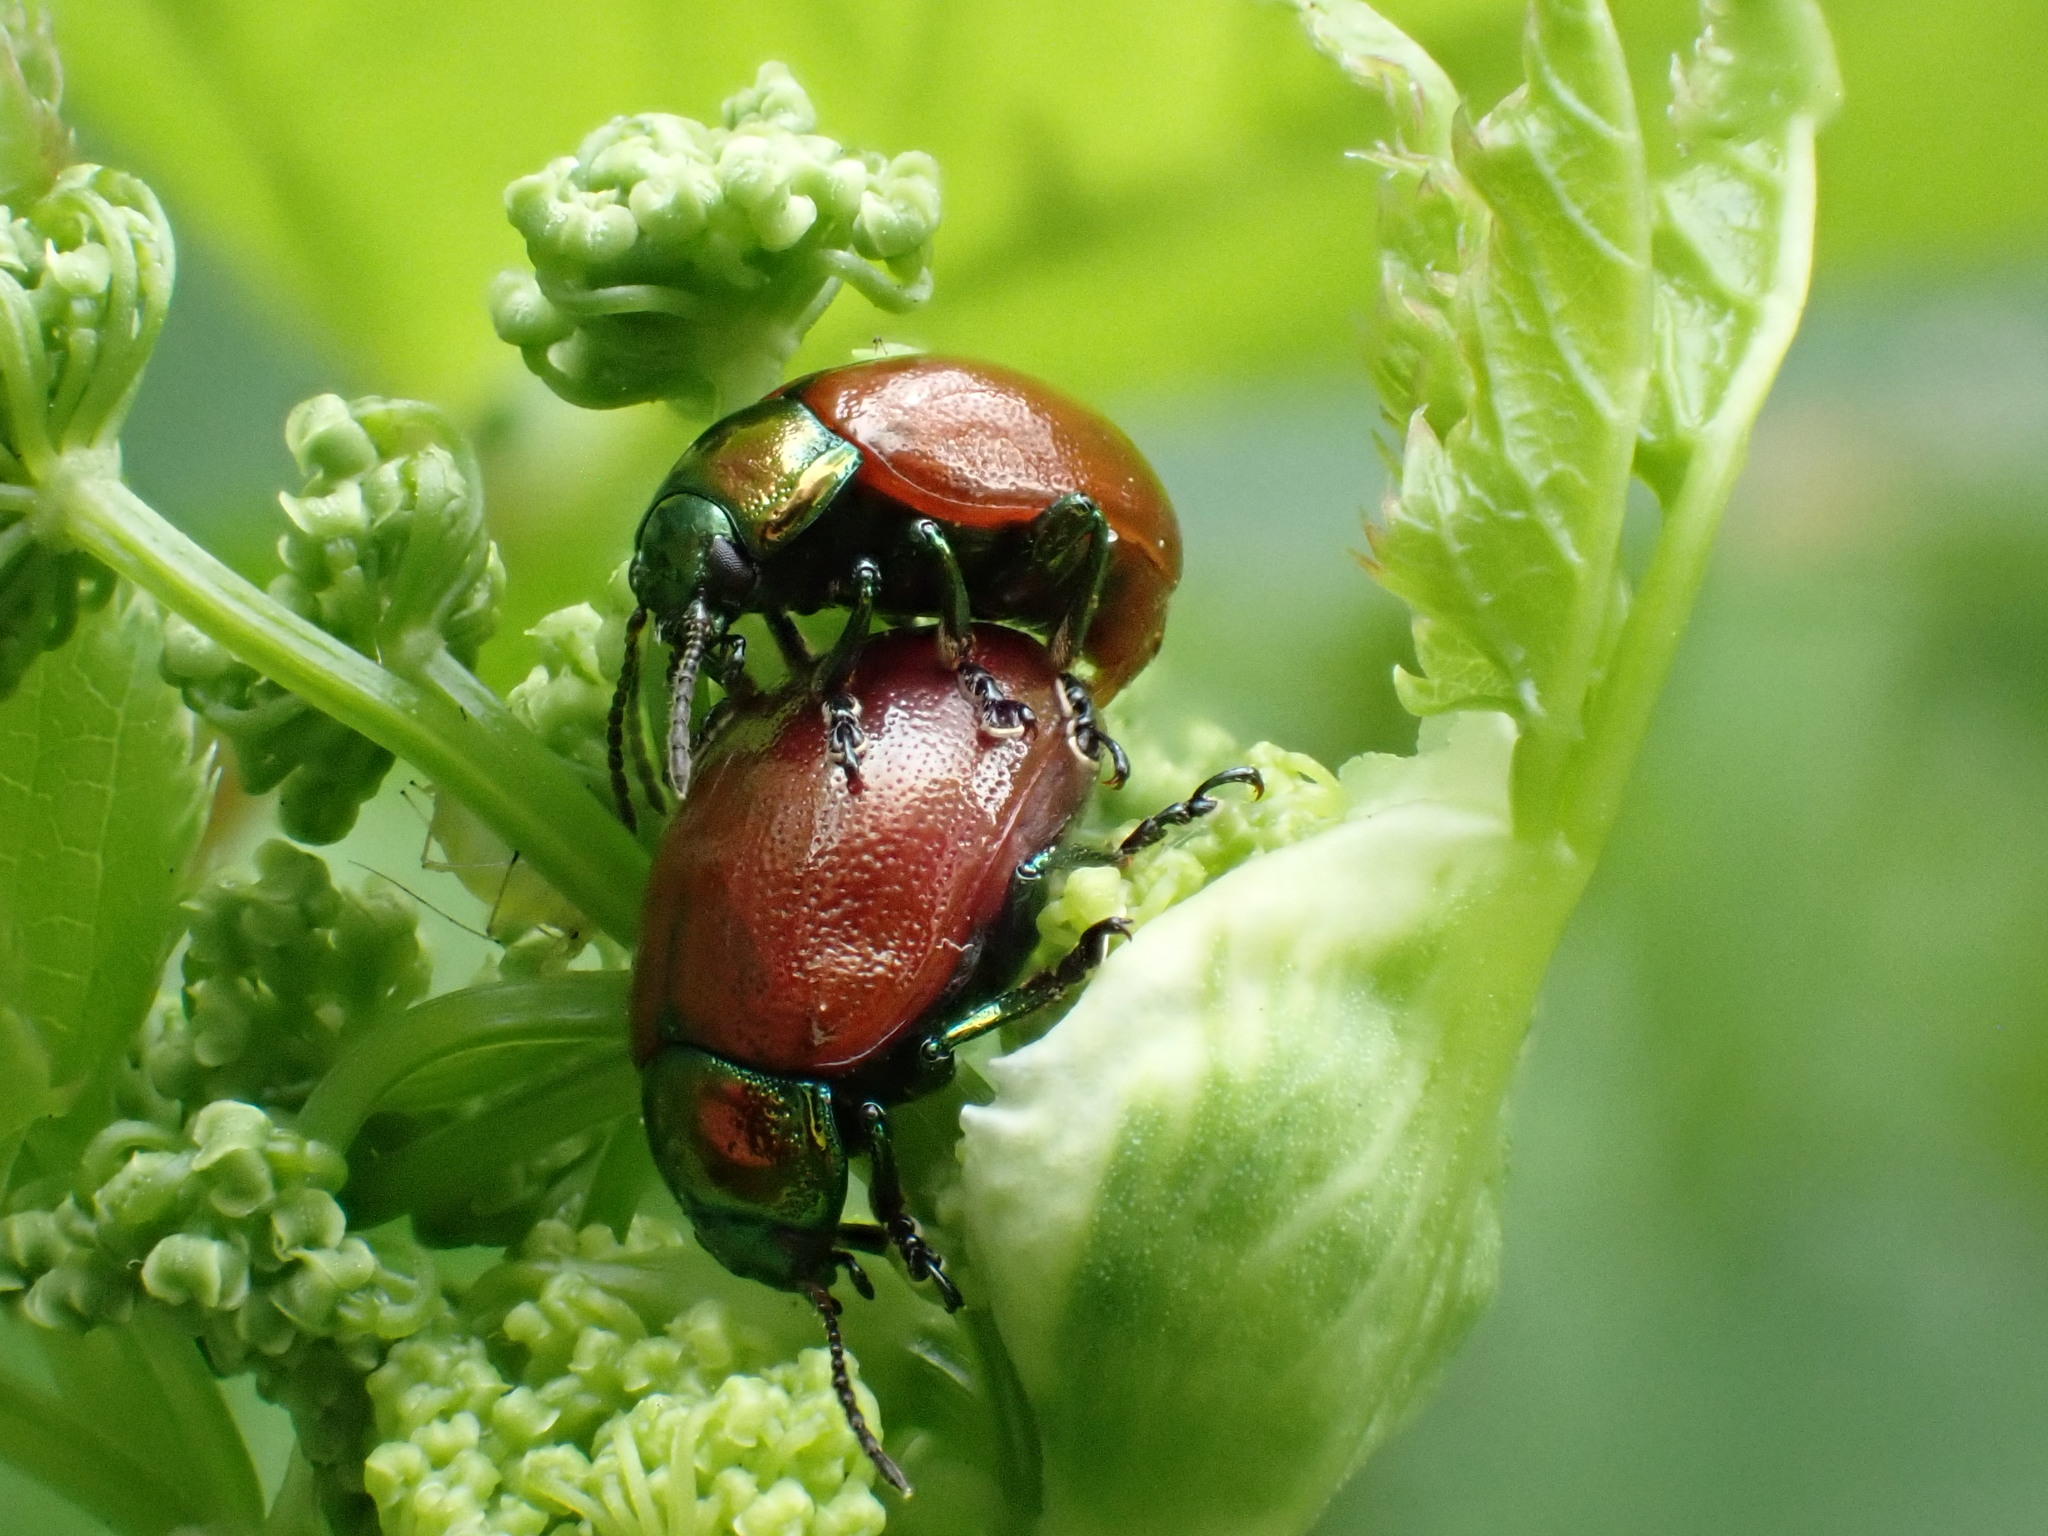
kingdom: Animalia
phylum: Arthropoda
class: Insecta
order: Coleoptera
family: Chrysomelidae
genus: Chrysomela
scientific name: Chrysomela polita
